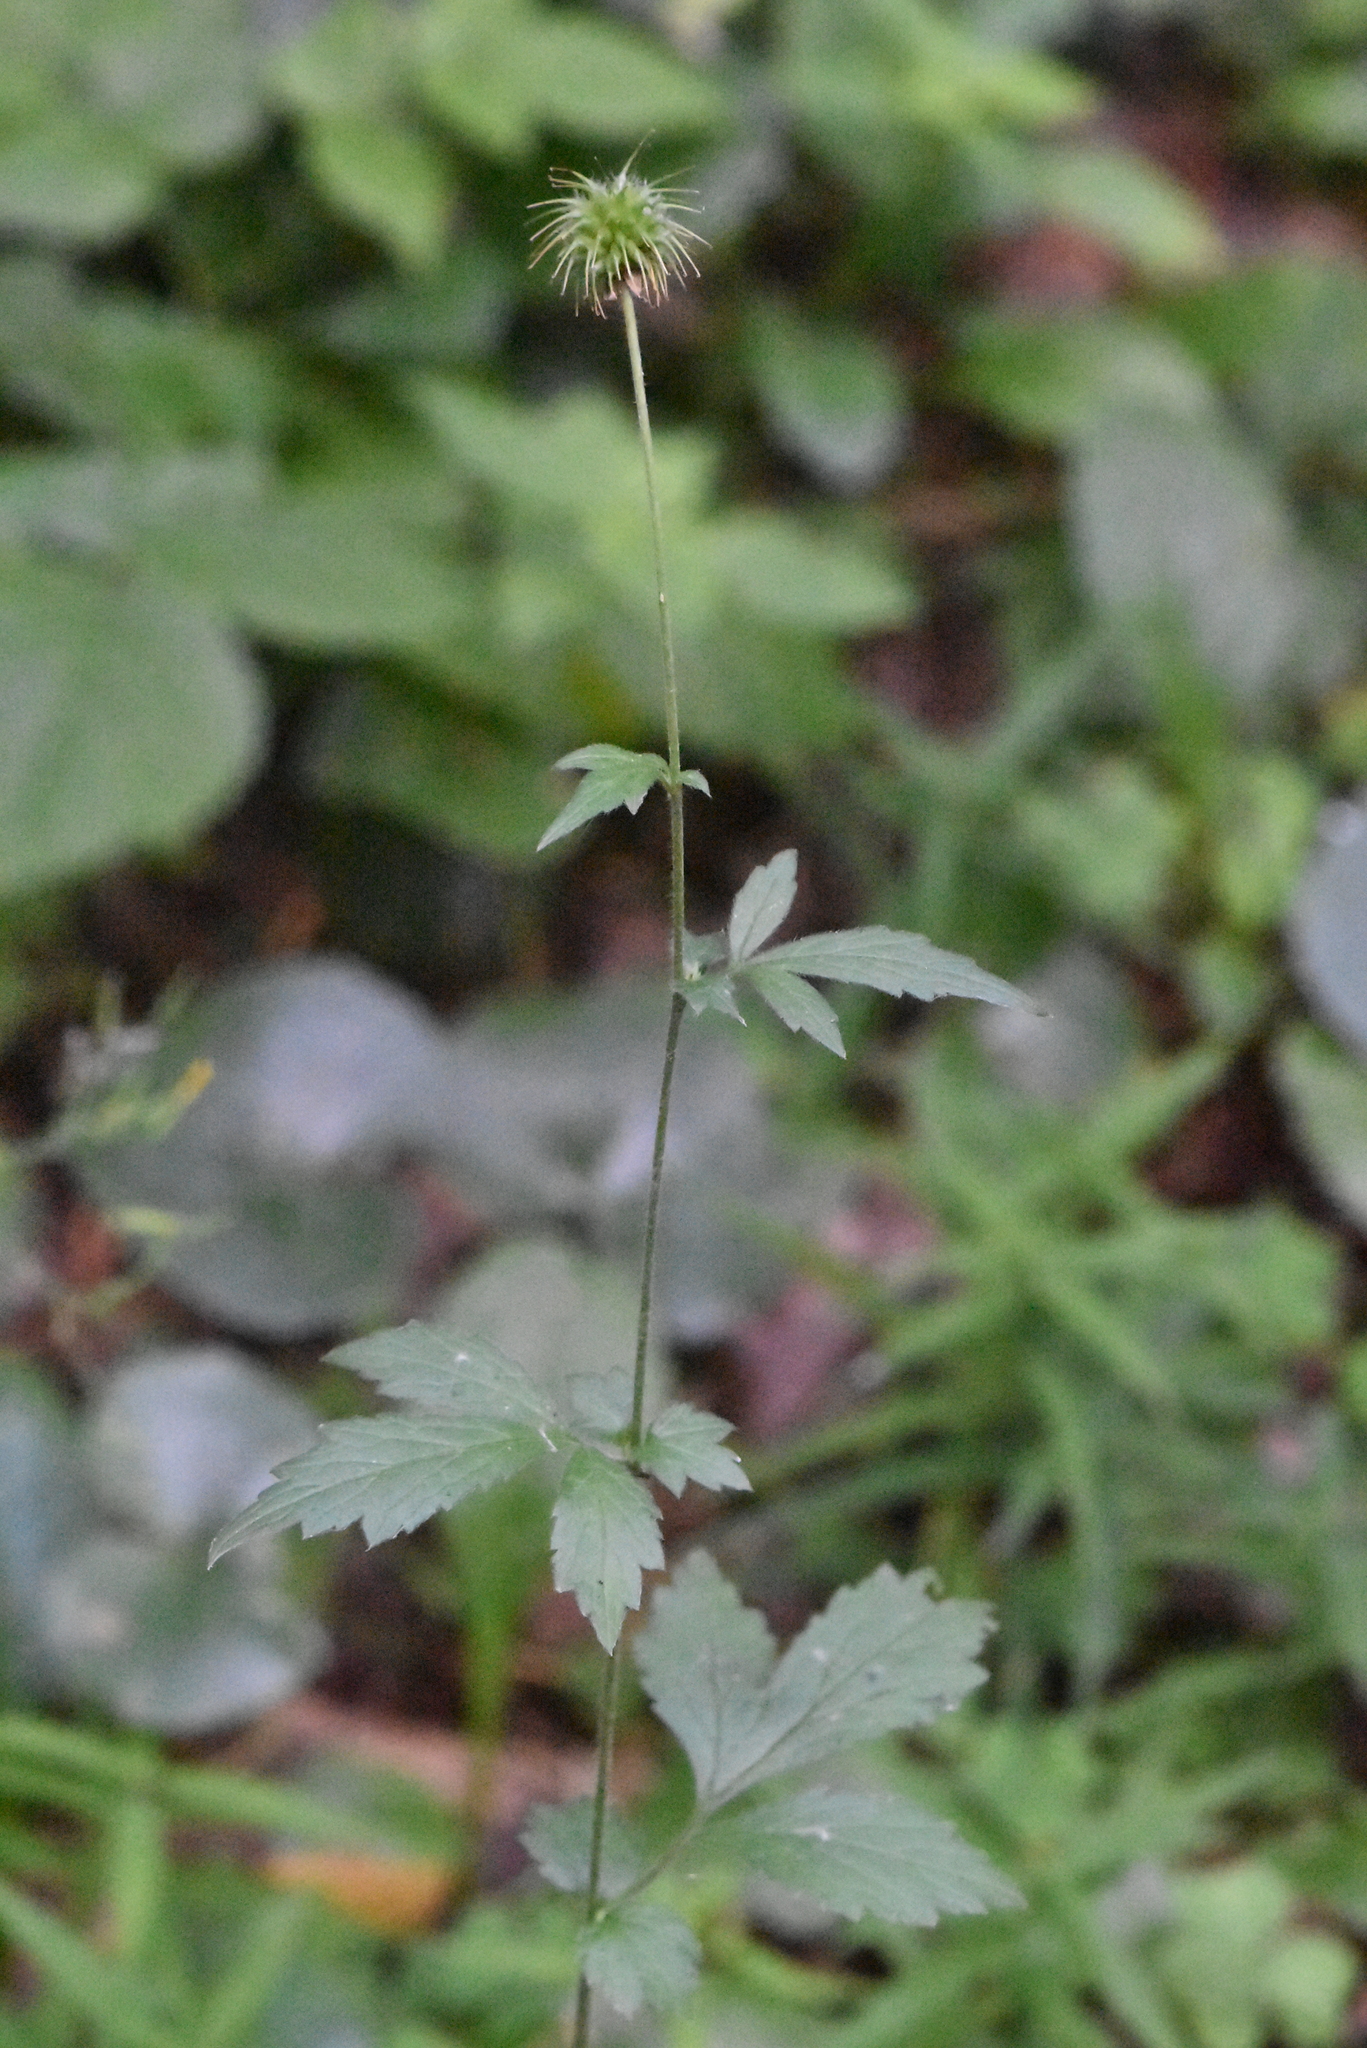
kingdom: Plantae
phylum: Tracheophyta
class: Magnoliopsida
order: Rosales
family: Rosaceae
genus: Geum
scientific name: Geum urbanum
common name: Wood avens
